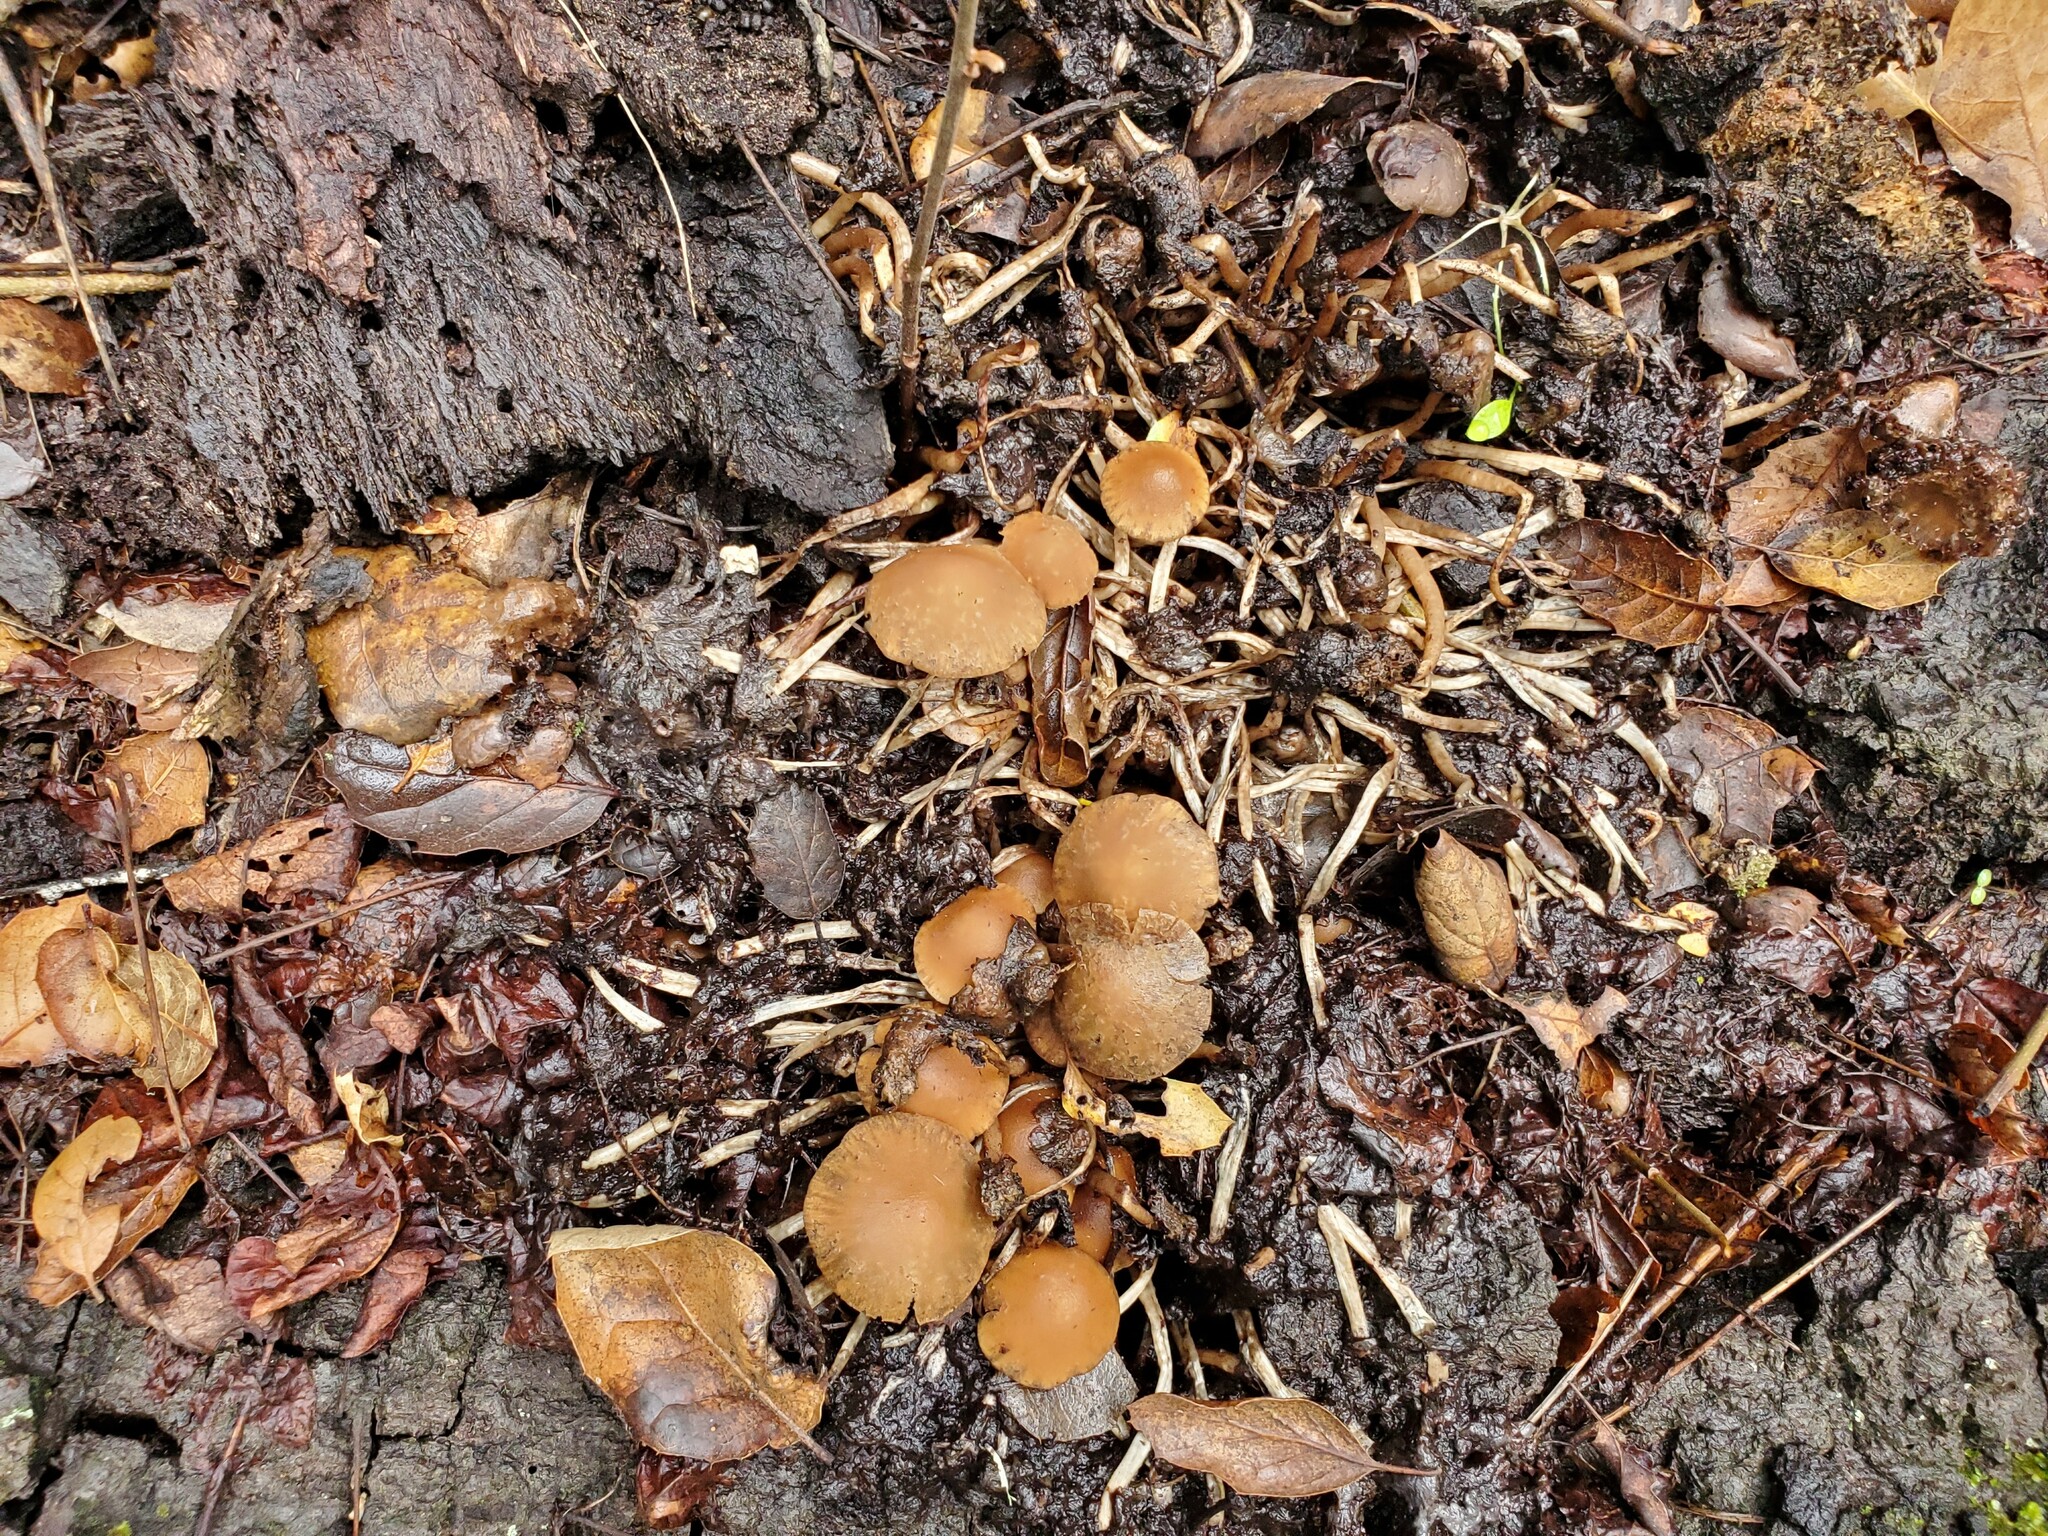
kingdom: Fungi
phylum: Basidiomycota
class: Agaricomycetes
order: Agaricales
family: Psathyrellaceae
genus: Psathyrella
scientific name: Psathyrella piluliformis
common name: Common stump brittlestem
